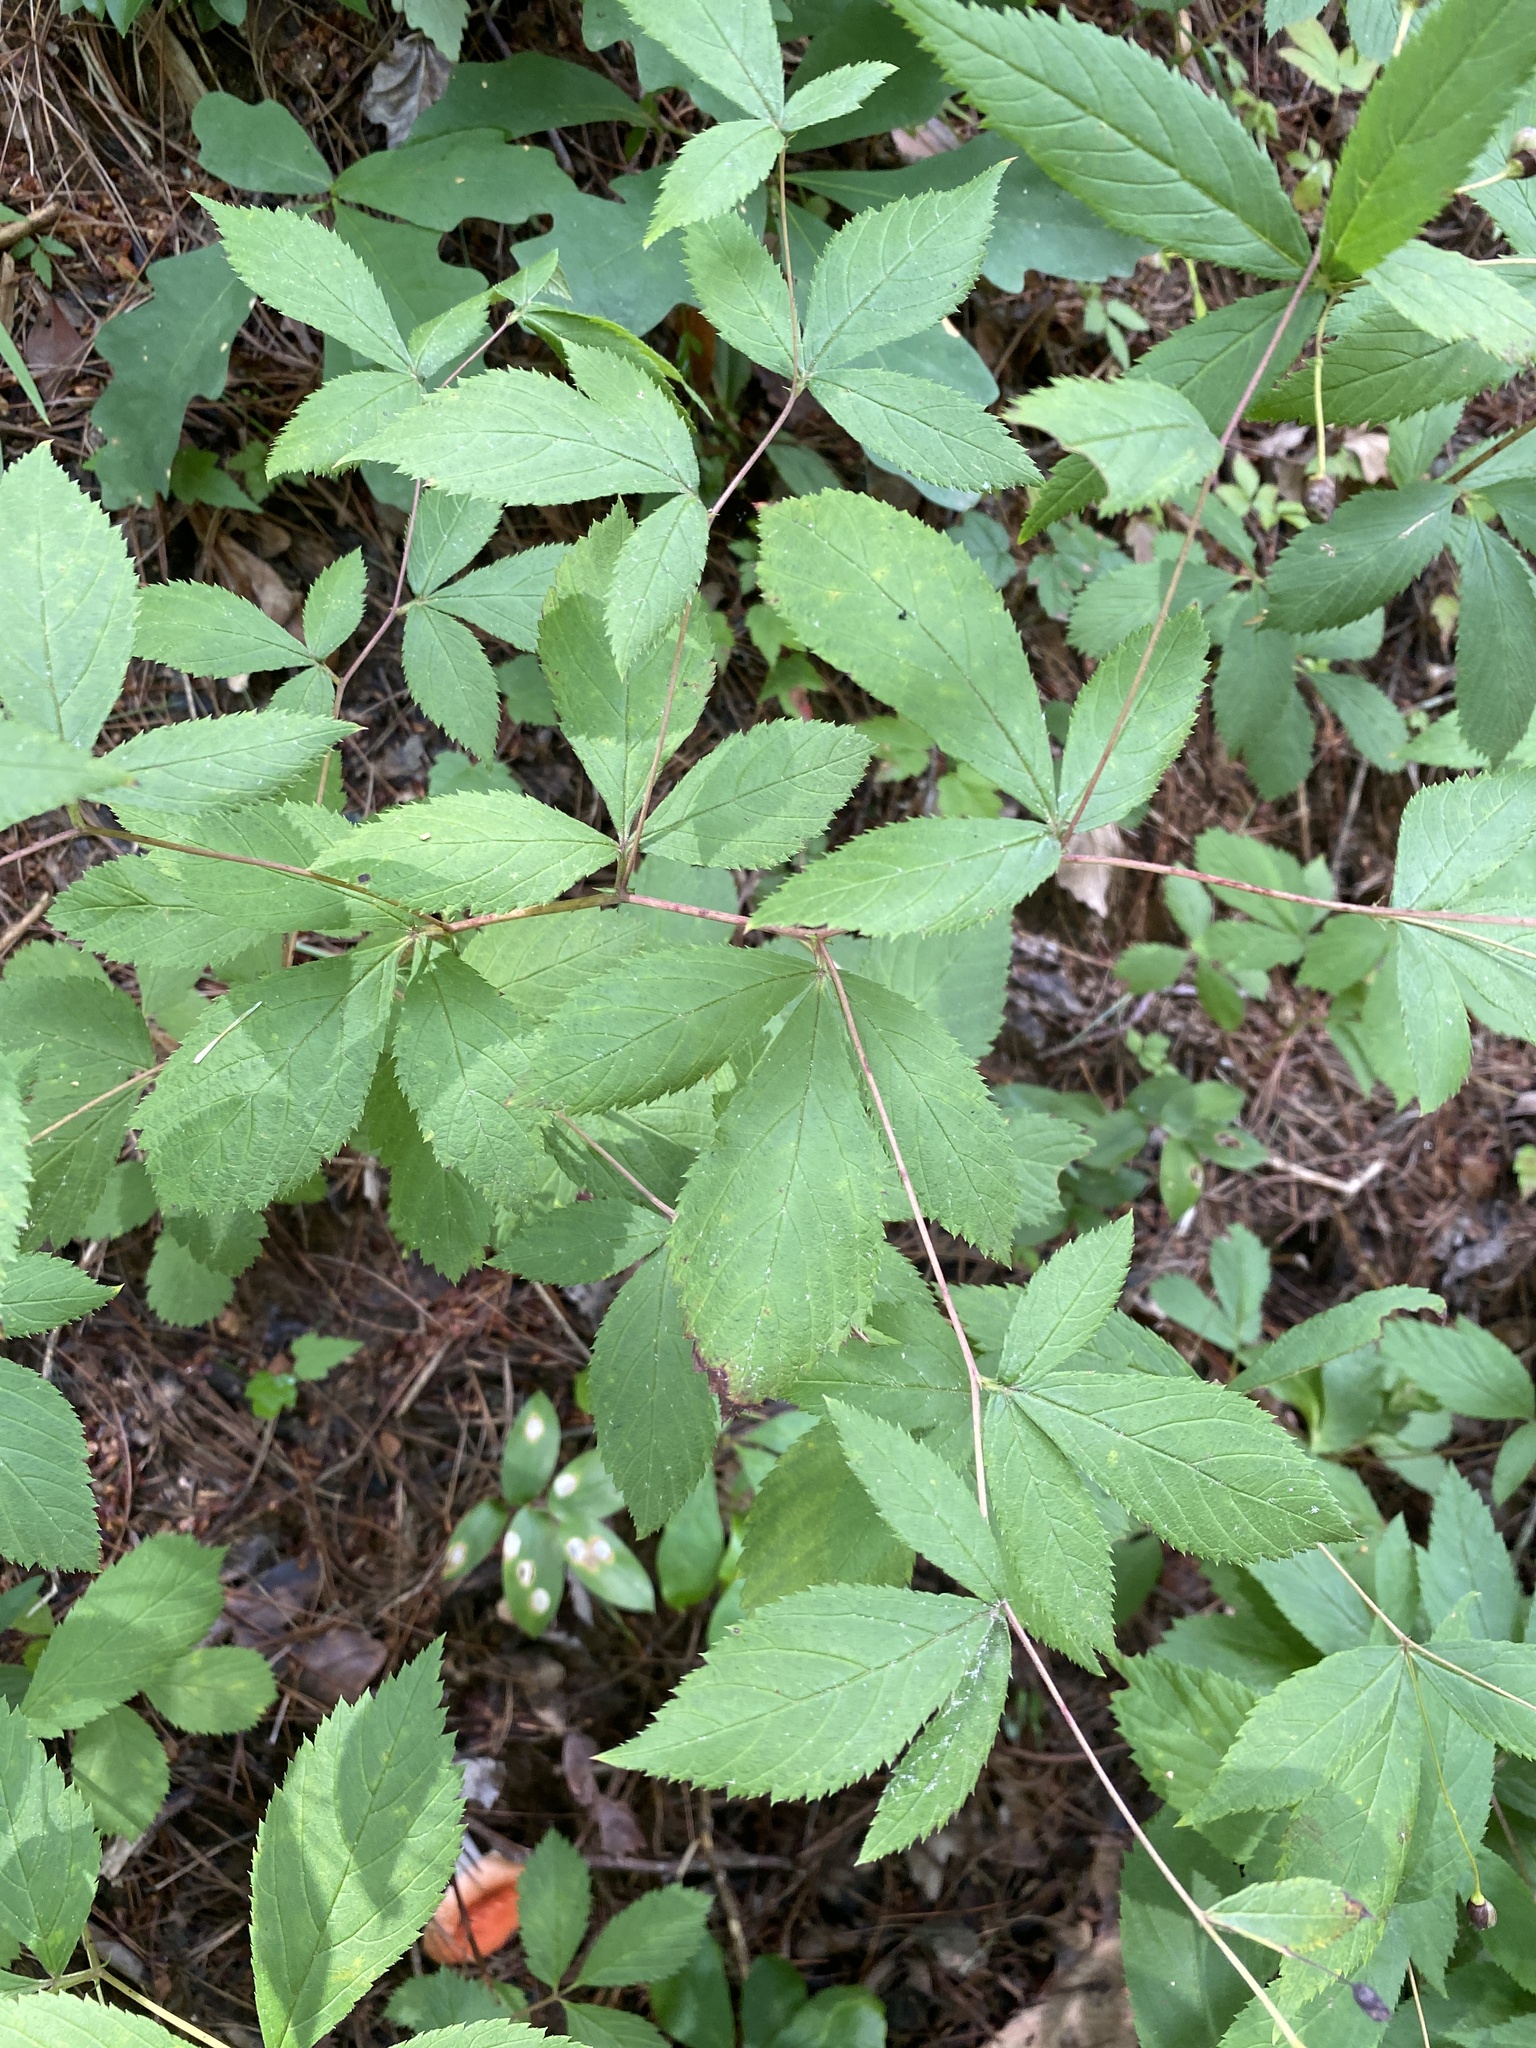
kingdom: Plantae
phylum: Tracheophyta
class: Magnoliopsida
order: Rosales
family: Rosaceae
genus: Gillenia
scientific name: Gillenia trifoliata
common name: Bowman's-root
